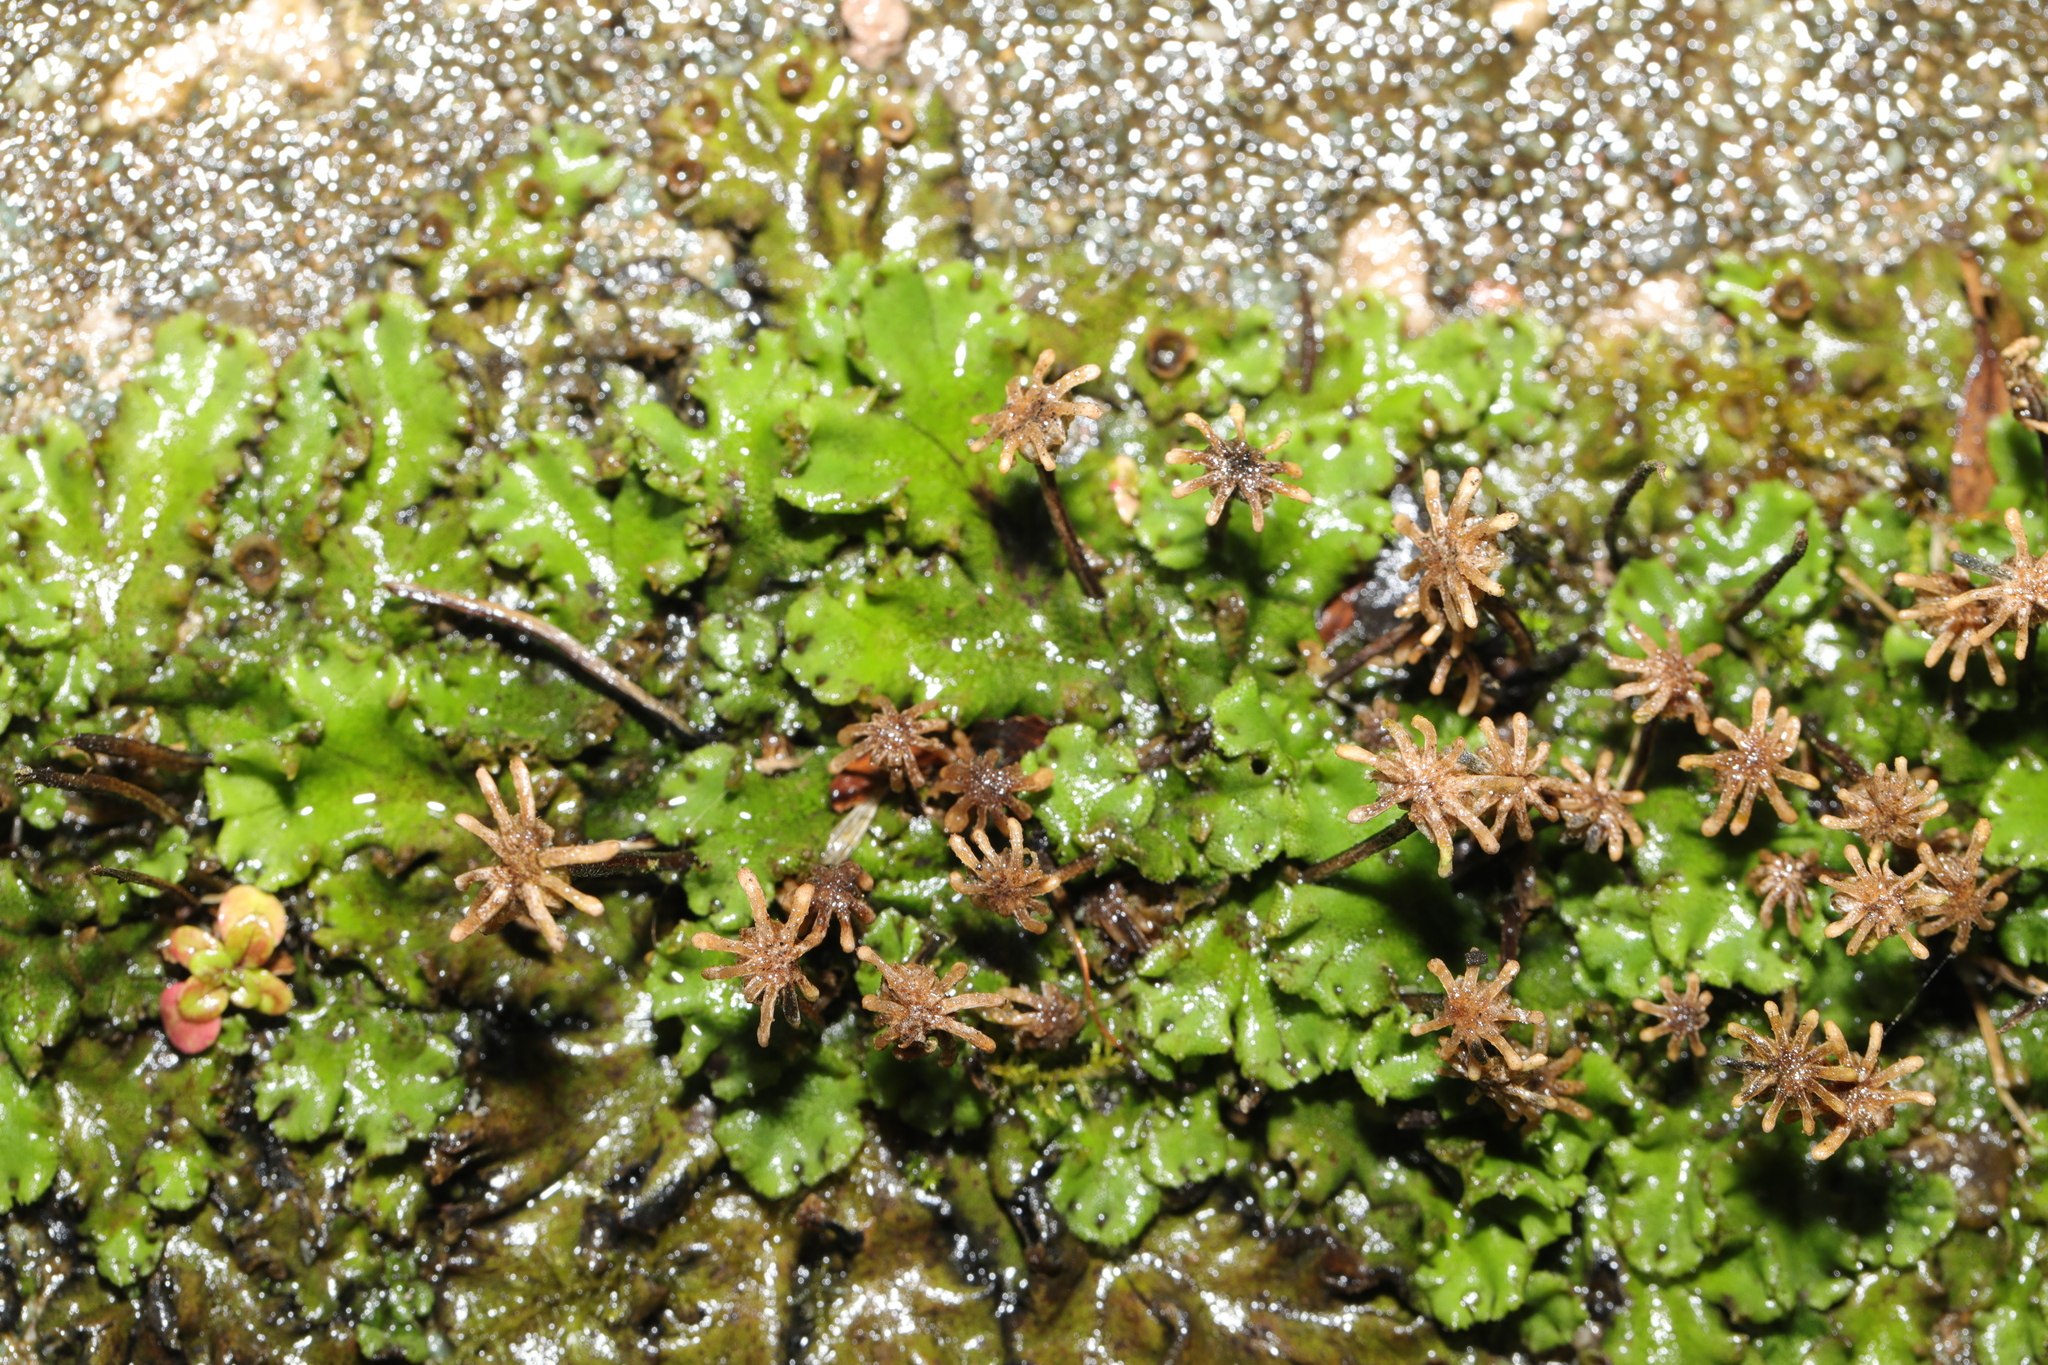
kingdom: Plantae
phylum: Marchantiophyta
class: Marchantiopsida
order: Marchantiales
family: Marchantiaceae
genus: Marchantia
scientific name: Marchantia polymorpha
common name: Common liverwort
